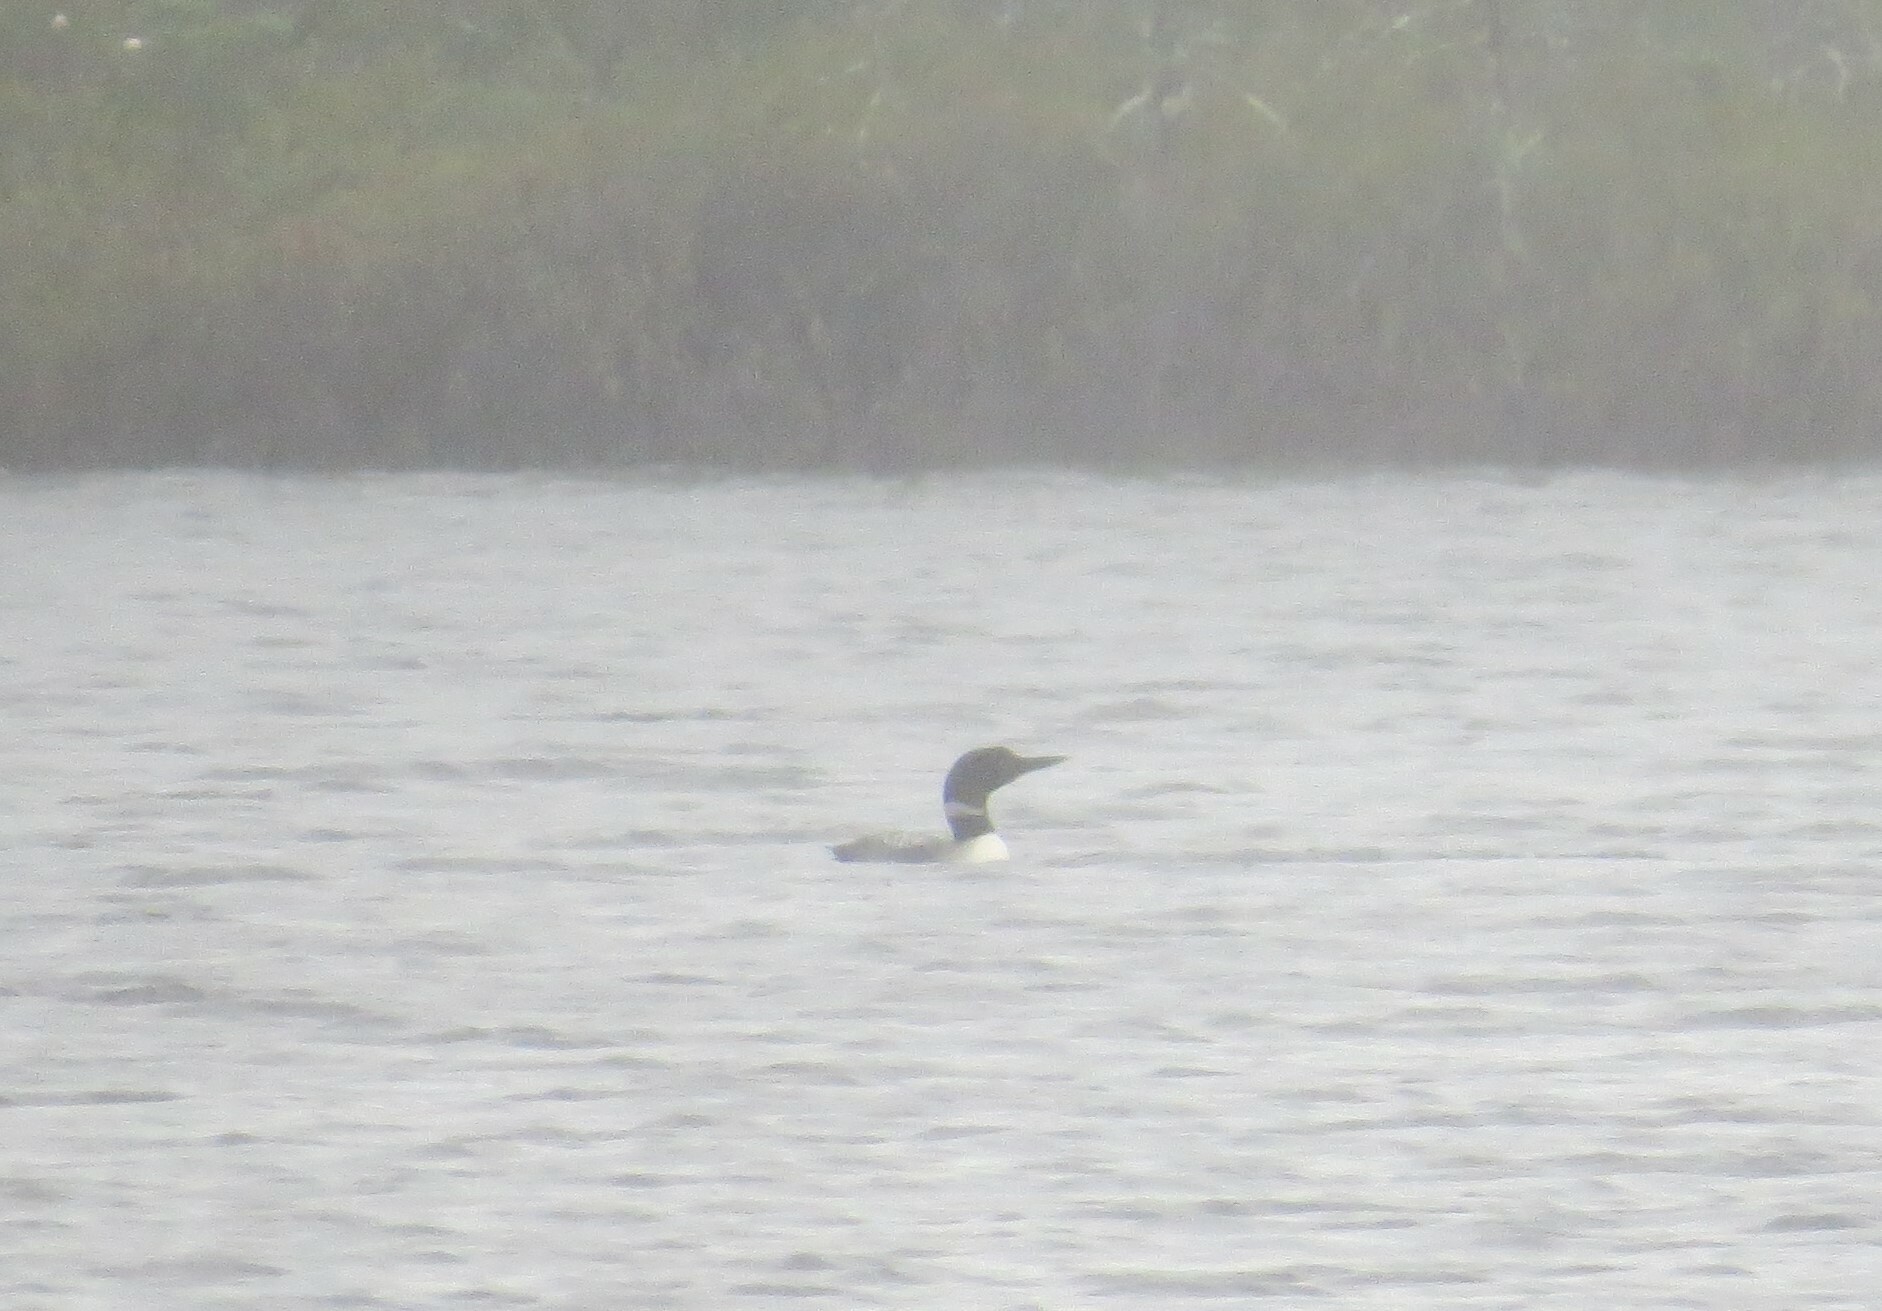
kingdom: Animalia
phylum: Chordata
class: Aves
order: Gaviiformes
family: Gaviidae
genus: Gavia
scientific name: Gavia immer
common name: Common loon
